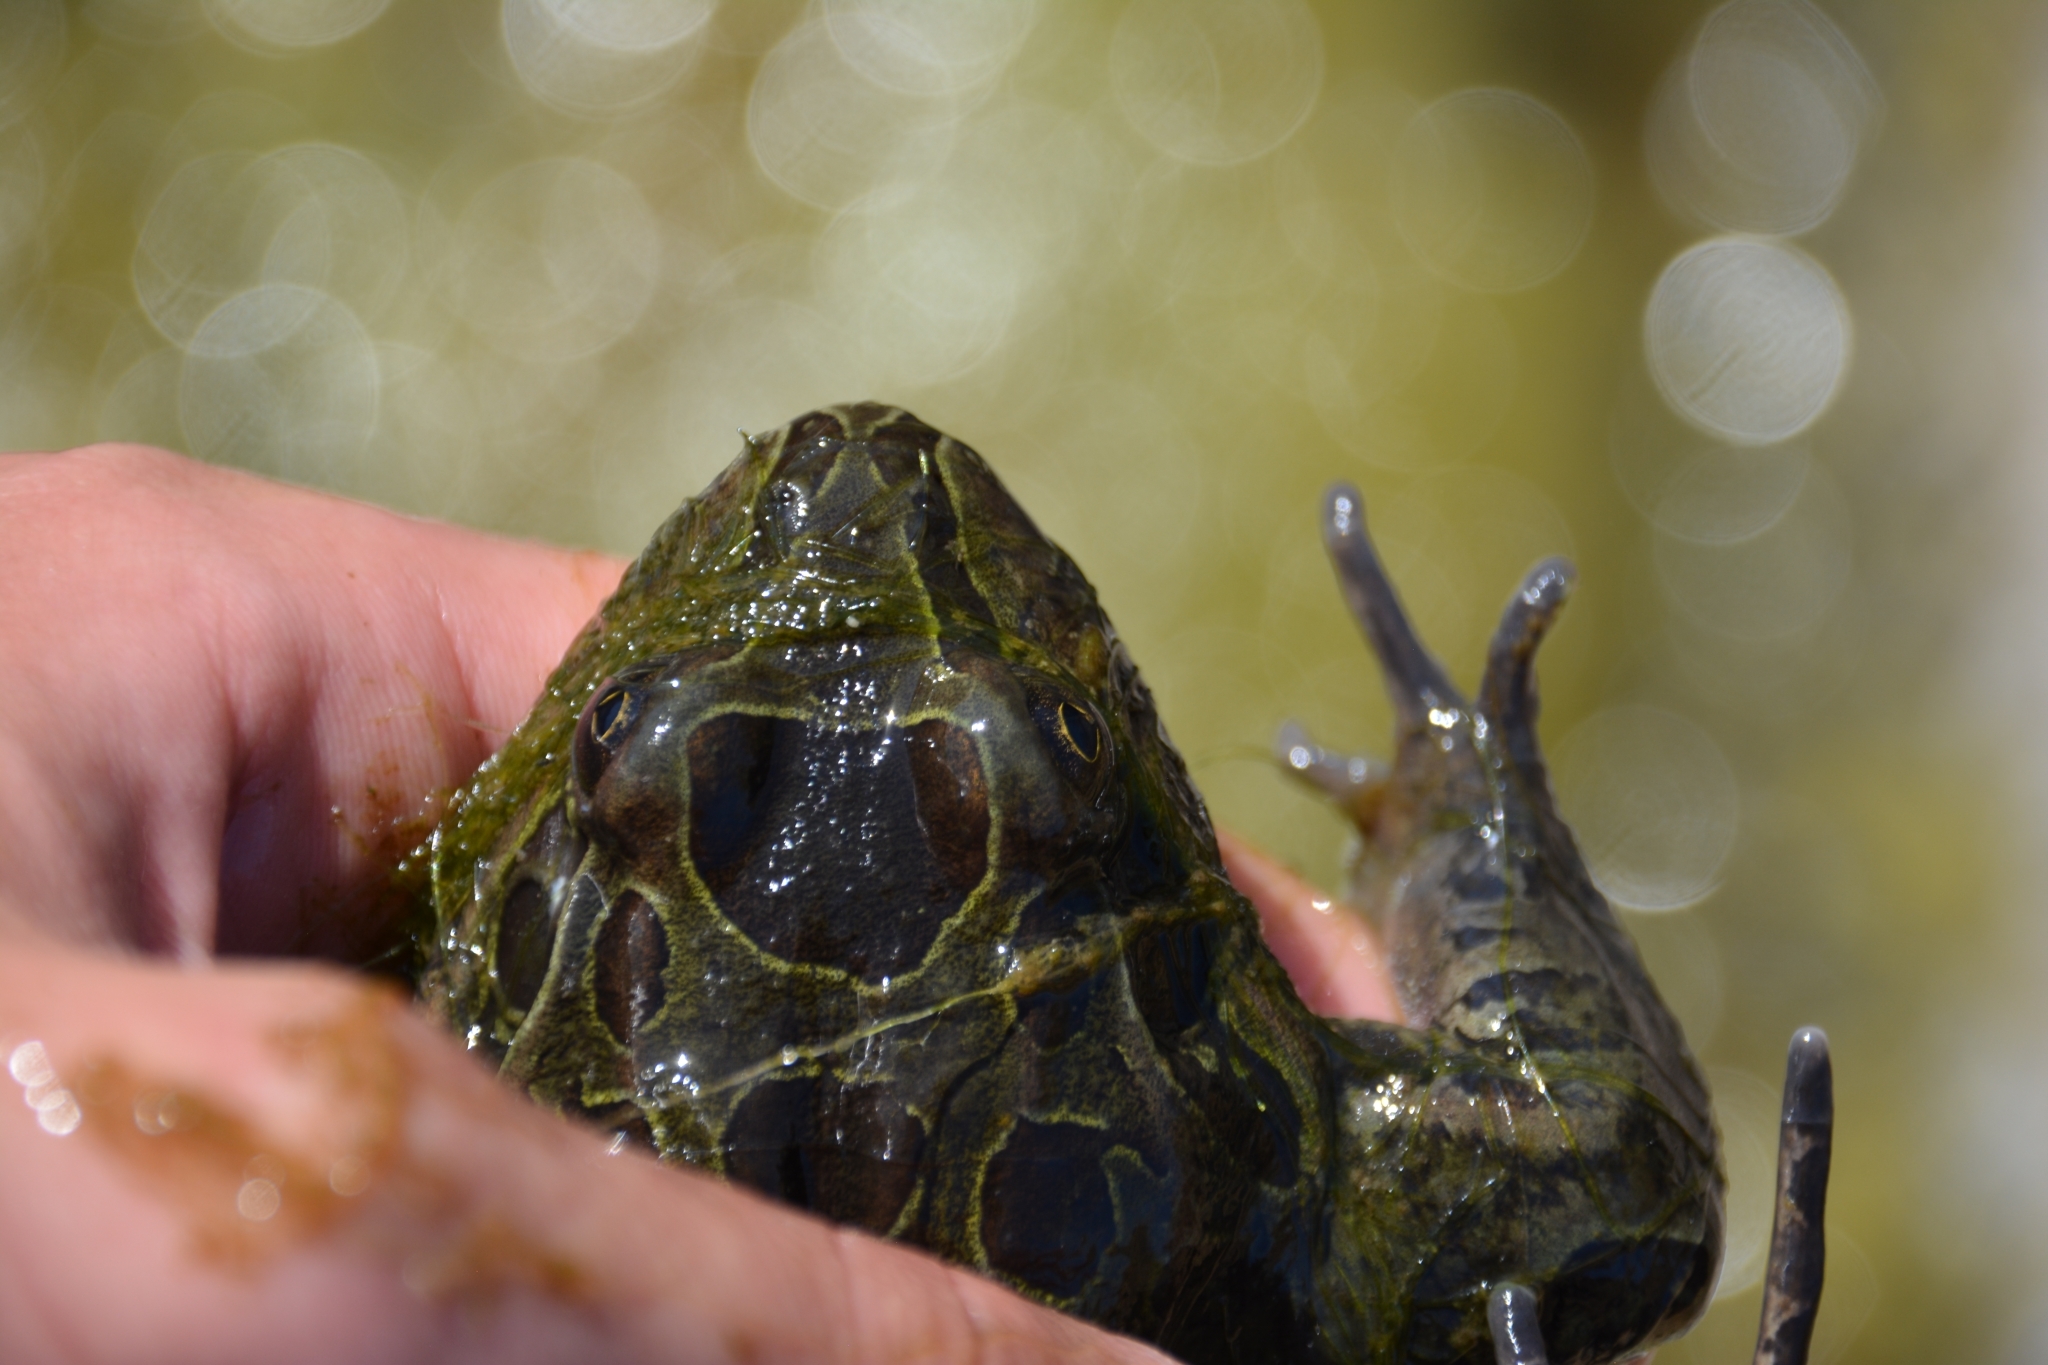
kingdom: Animalia
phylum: Chordata
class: Amphibia
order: Anura
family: Leptodactylidae
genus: Leptodactylus
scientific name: Leptodactylus luctator
